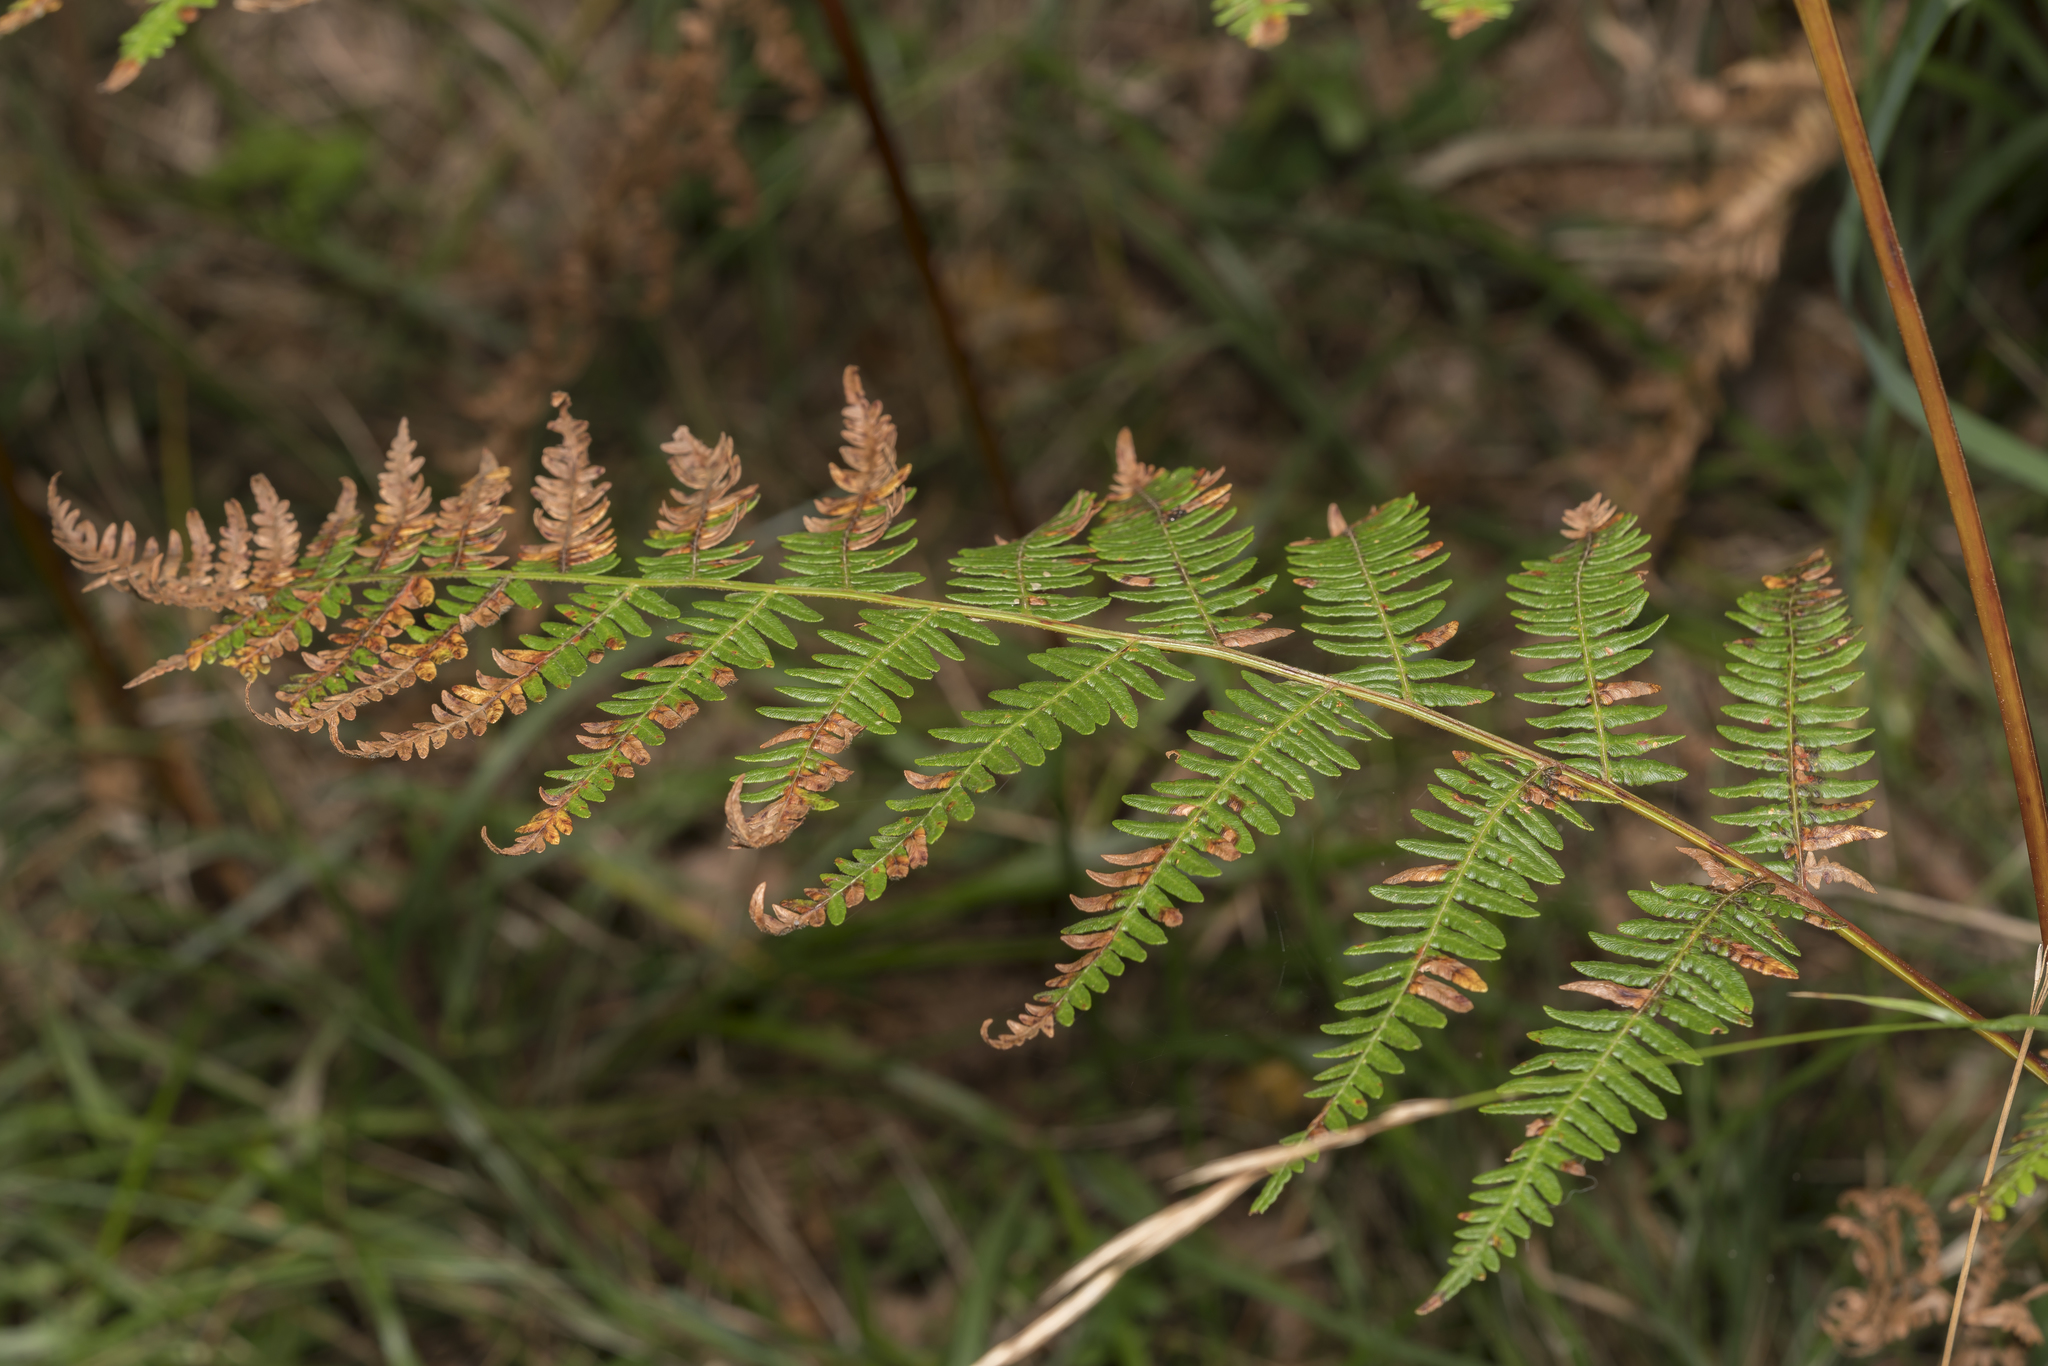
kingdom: Plantae
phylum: Tracheophyta
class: Polypodiopsida
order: Polypodiales
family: Dennstaedtiaceae
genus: Pteridium
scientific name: Pteridium aquilinum
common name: Bracken
